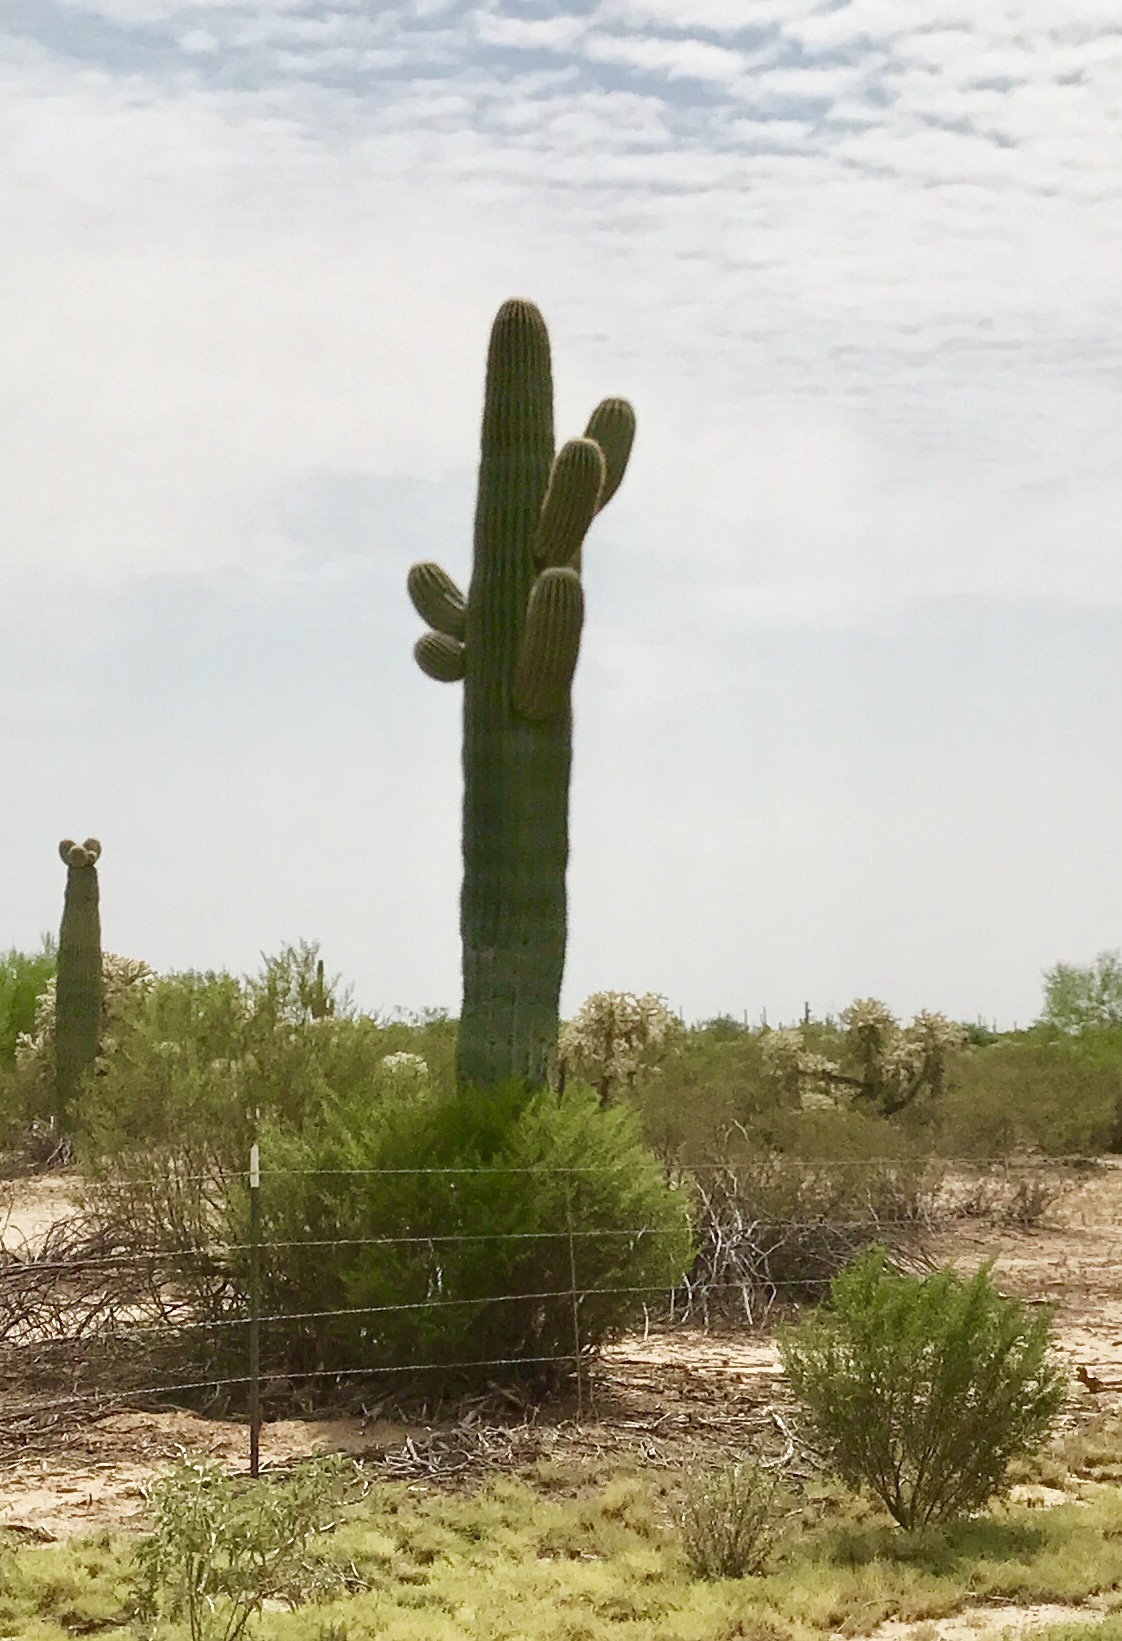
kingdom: Plantae
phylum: Tracheophyta
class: Magnoliopsida
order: Caryophyllales
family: Cactaceae
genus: Carnegiea
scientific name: Carnegiea gigantea
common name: Saguaro
